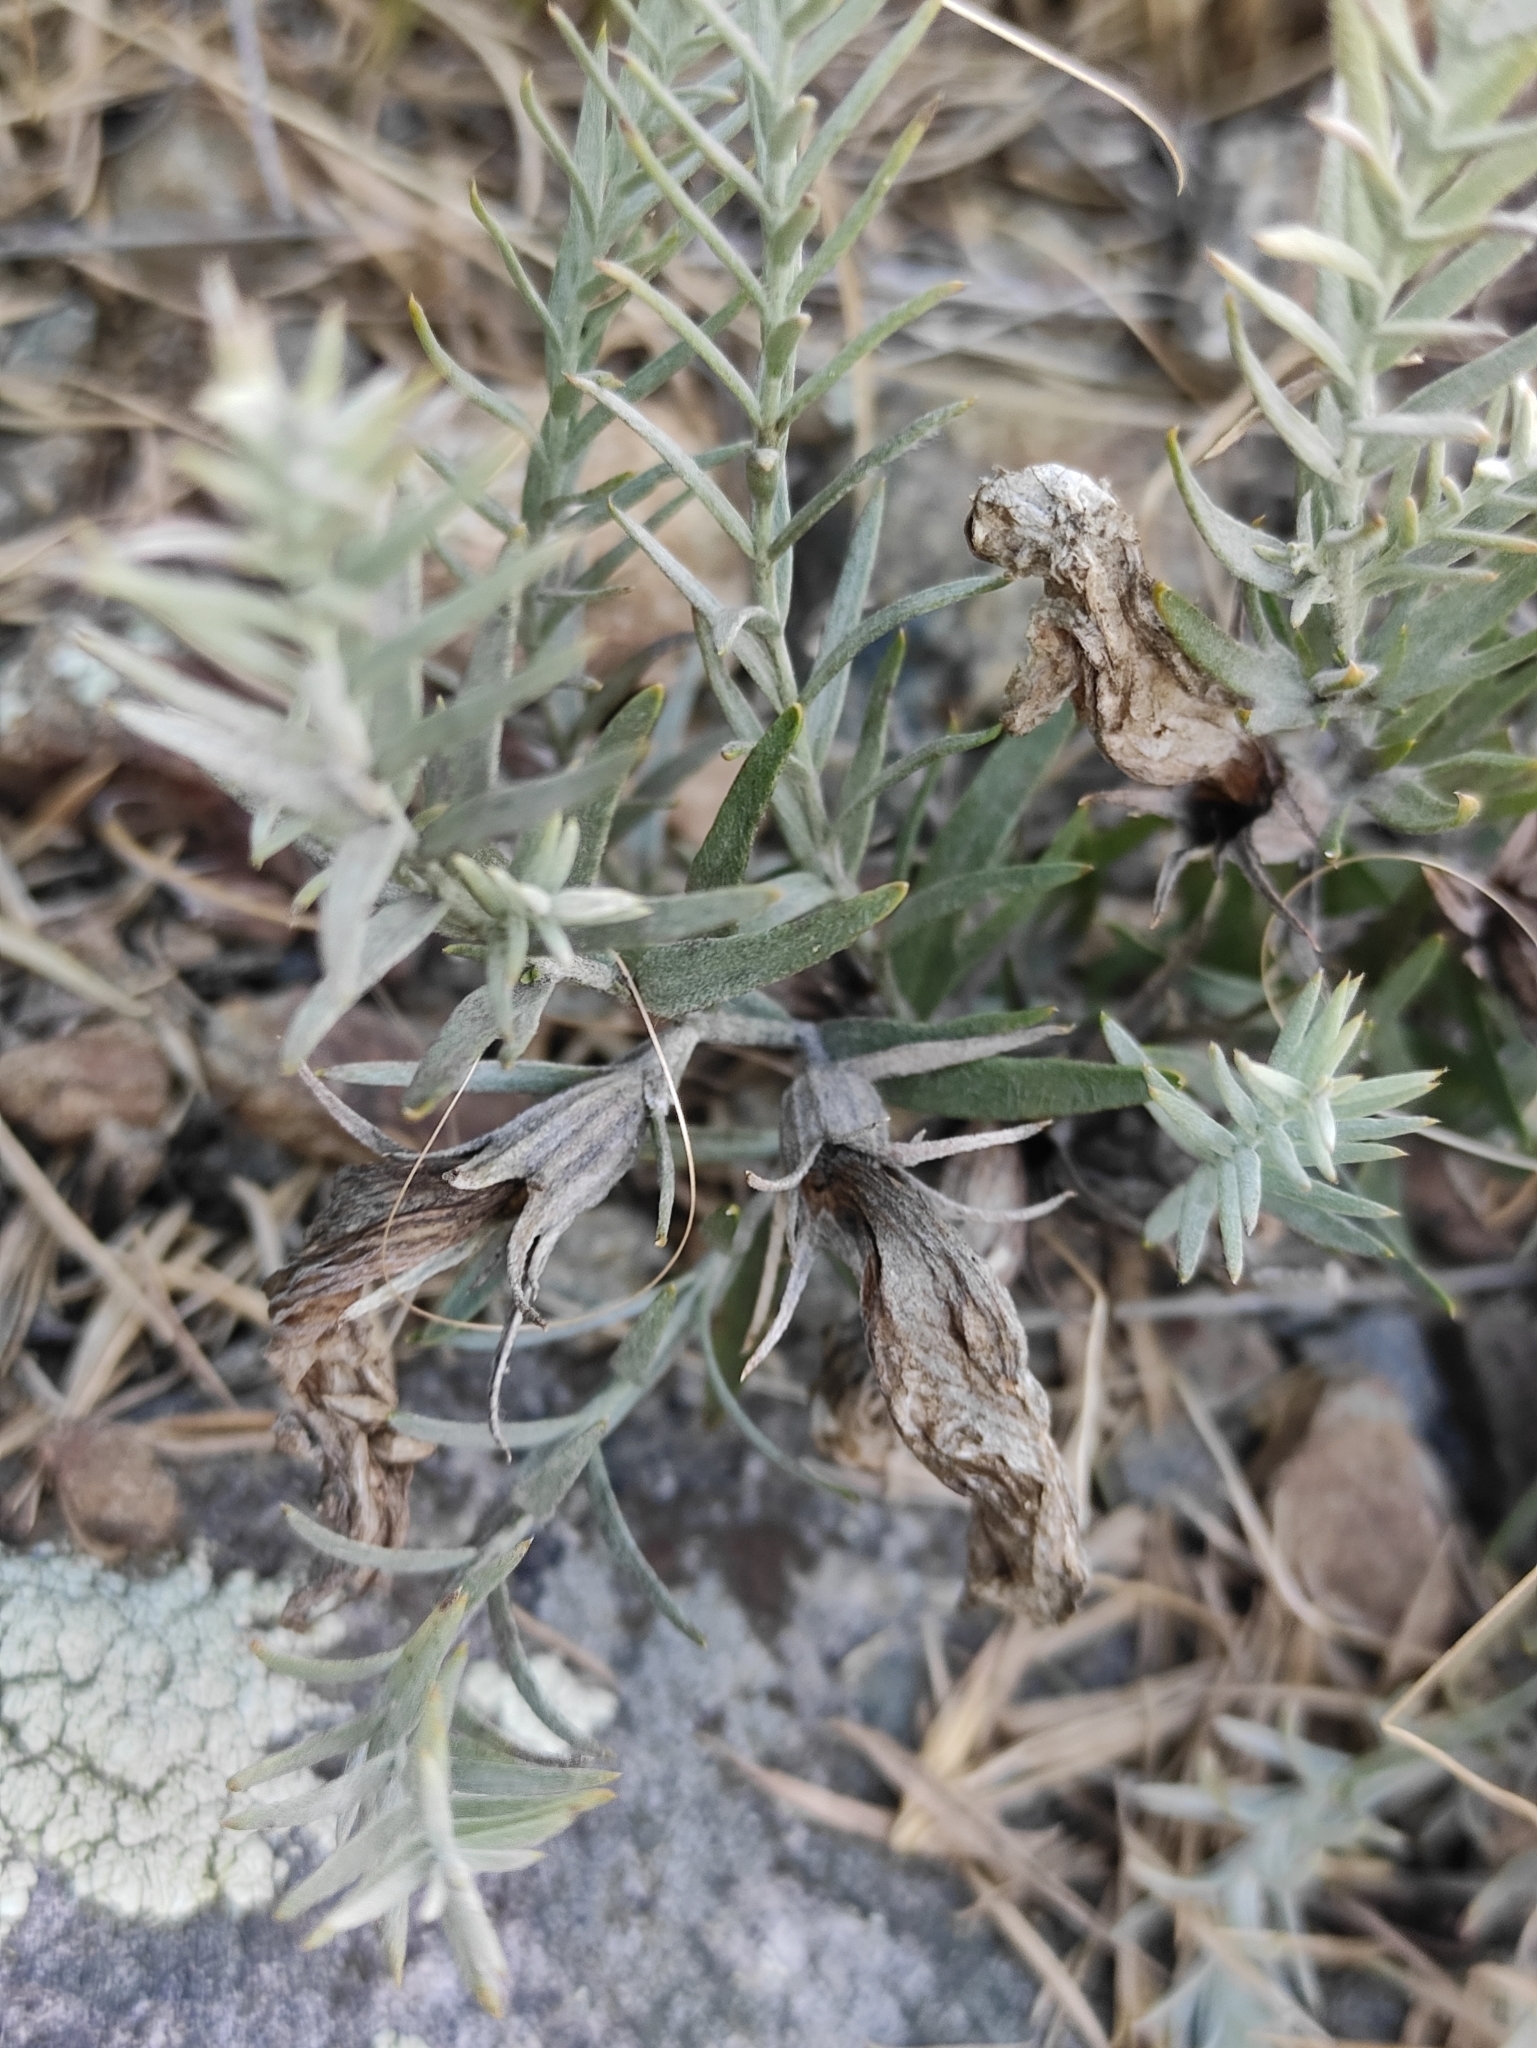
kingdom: Plantae
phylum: Tracheophyta
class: Magnoliopsida
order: Lamiales
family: Orobanchaceae
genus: Cymbaria
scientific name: Cymbaria daurica
